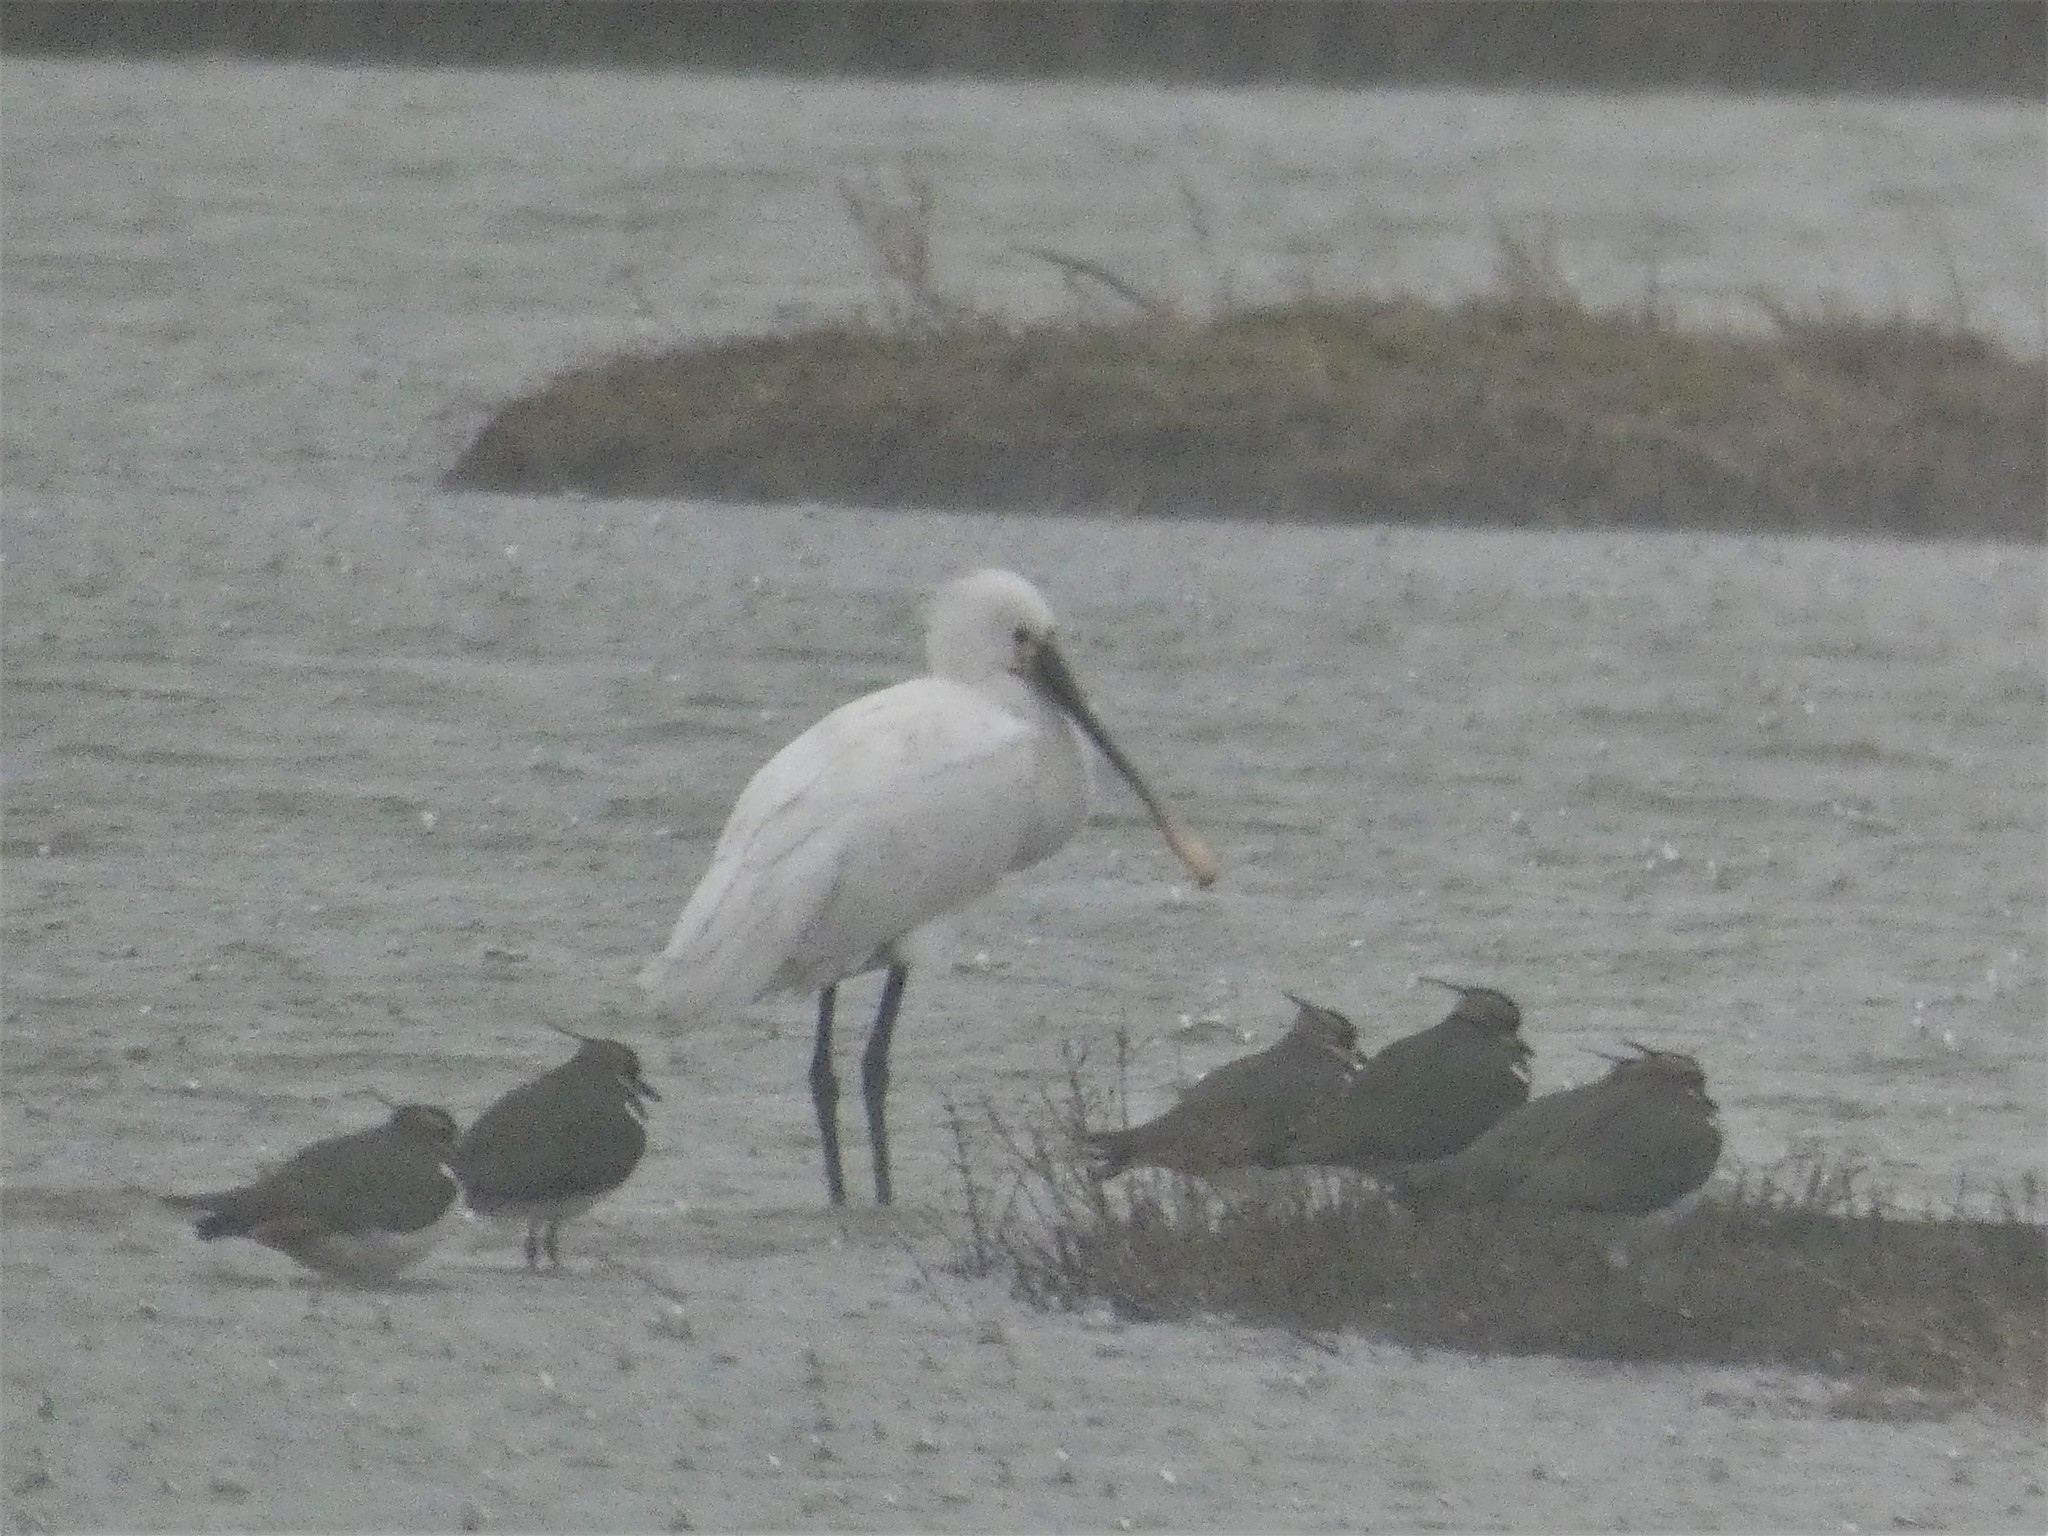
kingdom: Animalia
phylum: Chordata
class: Aves
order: Pelecaniformes
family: Threskiornithidae
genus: Platalea
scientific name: Platalea leucorodia
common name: Eurasian spoonbill
